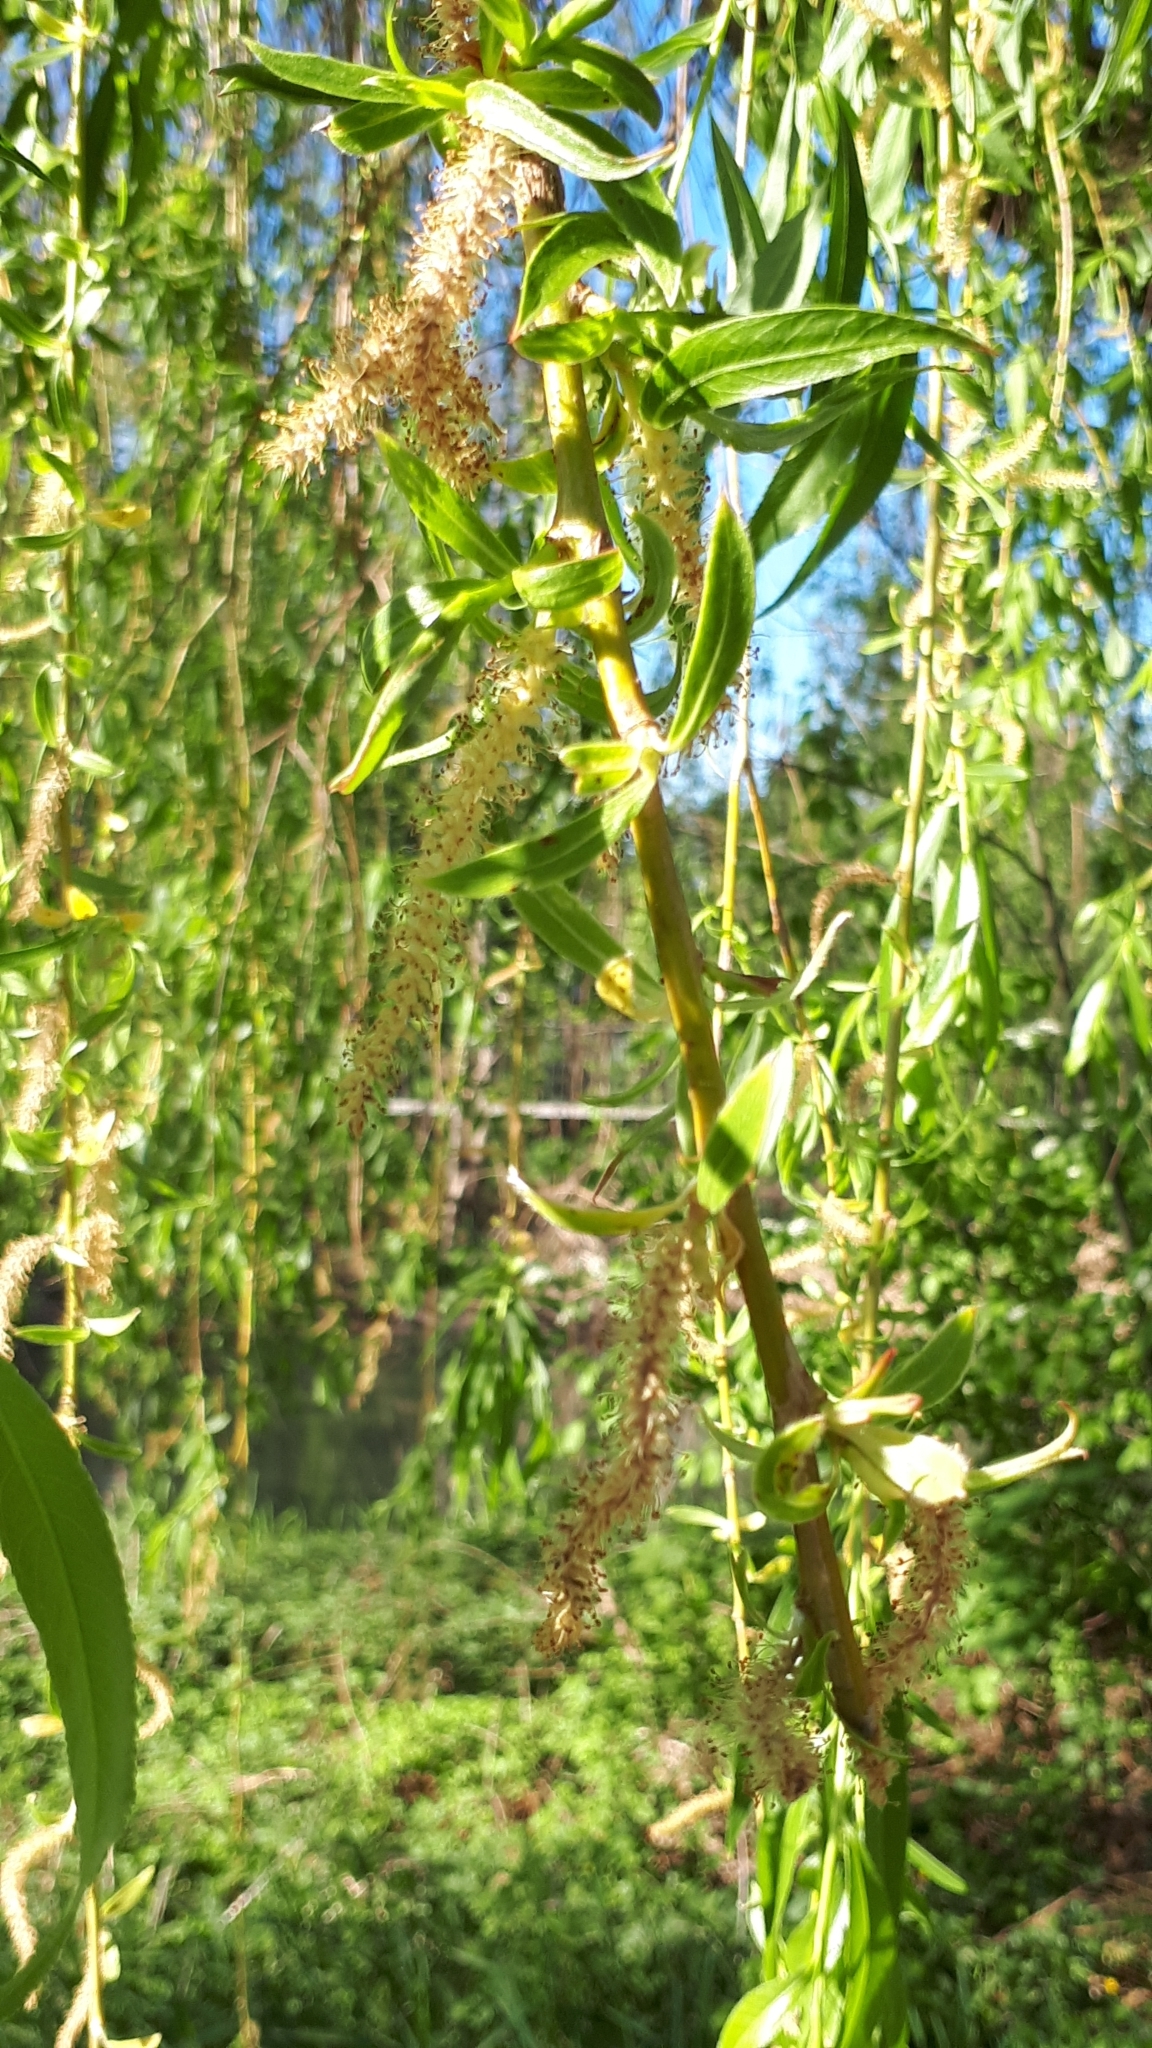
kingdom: Plantae
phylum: Tracheophyta
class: Magnoliopsida
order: Malpighiales
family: Salicaceae
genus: Salix
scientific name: Salix pendulina
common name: Wisconsin weeping willow
